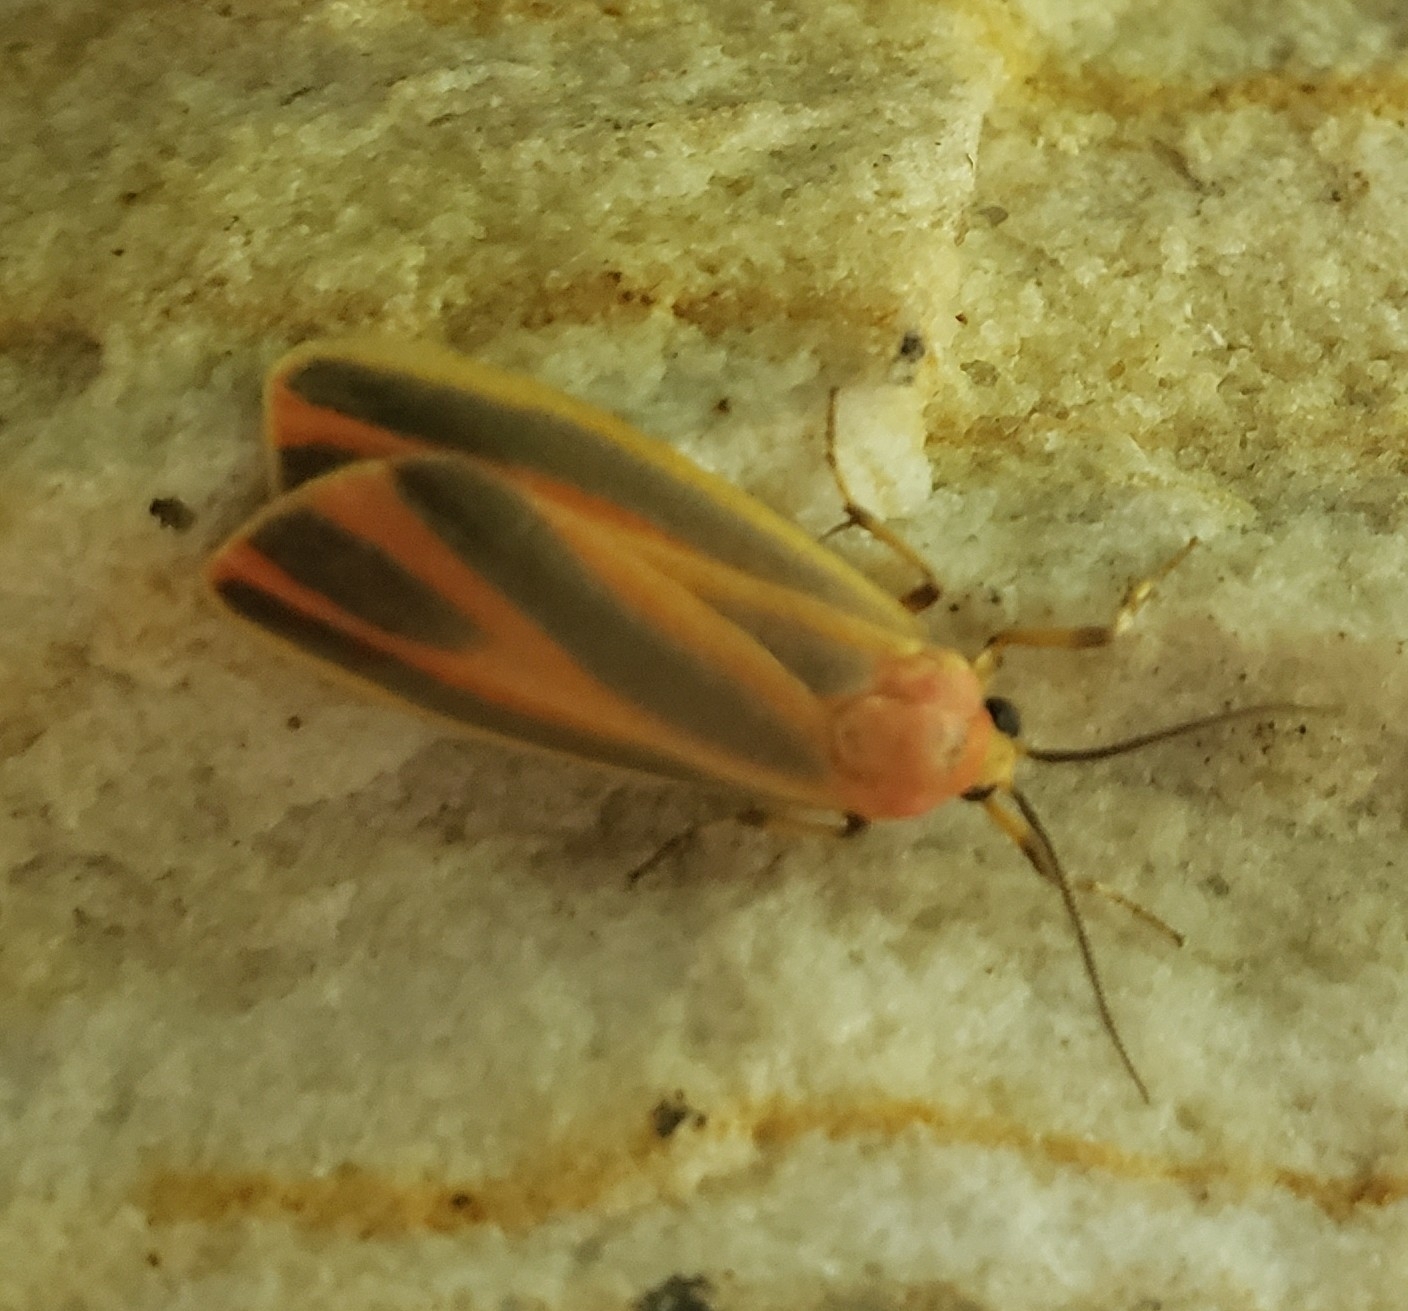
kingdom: Animalia
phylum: Arthropoda
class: Insecta
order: Lepidoptera
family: Erebidae
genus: Hypoprepia
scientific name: Hypoprepia fucosa
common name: Painted lichen moth
